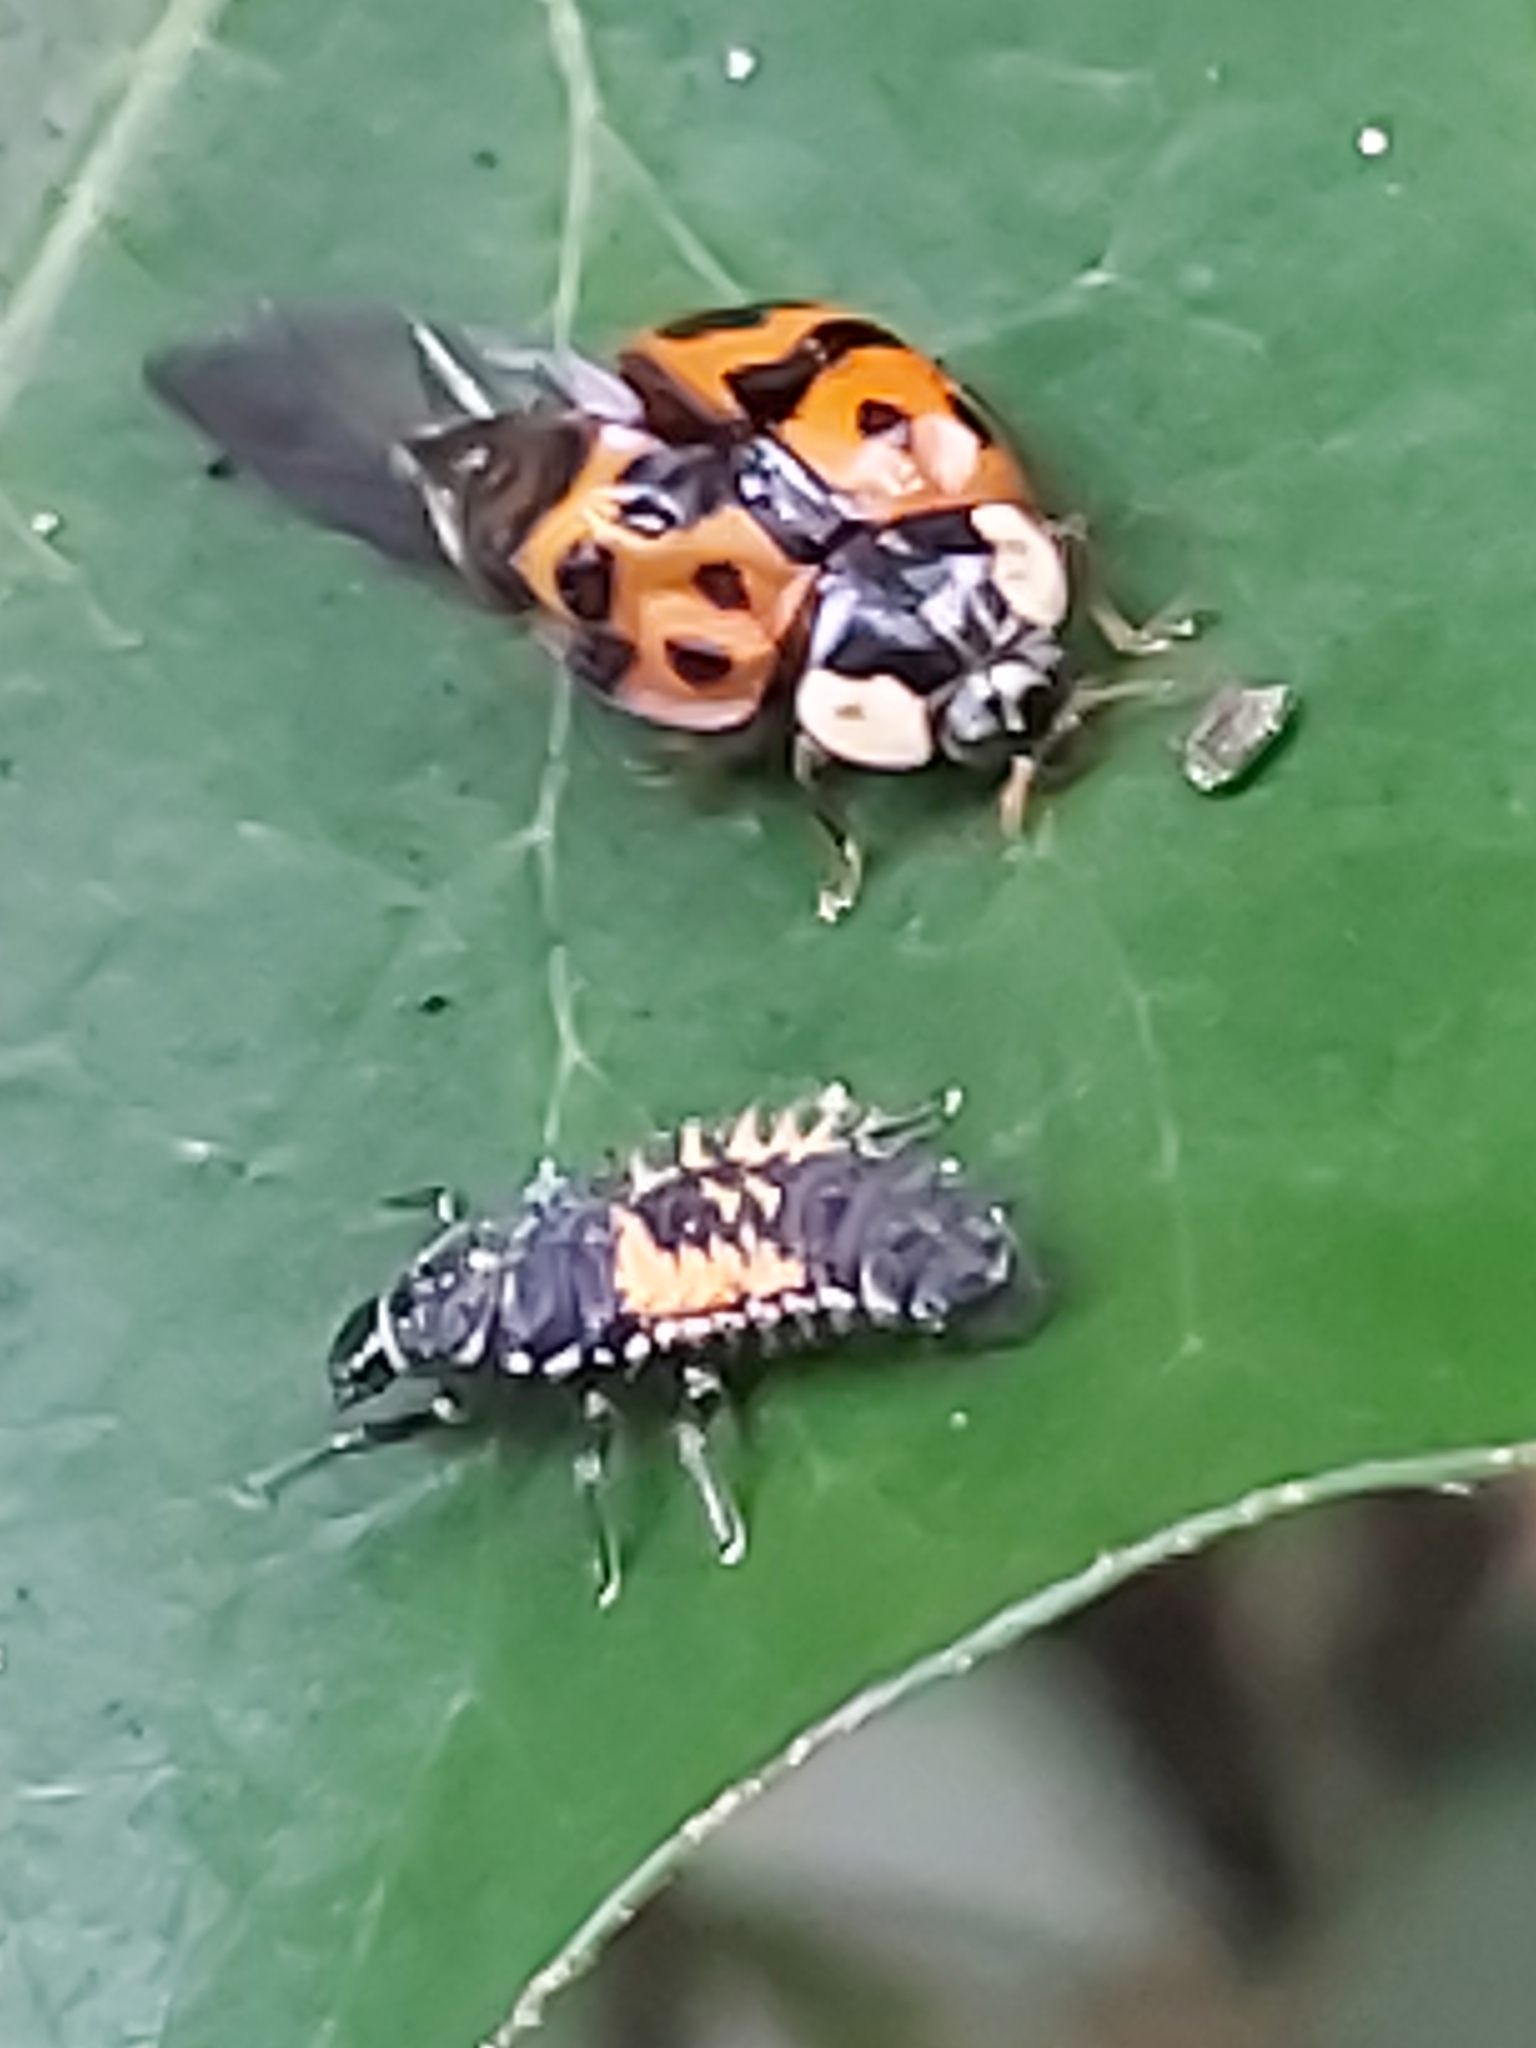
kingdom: Animalia
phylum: Arthropoda
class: Insecta
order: Coleoptera
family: Coccinellidae
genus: Harmonia
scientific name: Harmonia axyridis
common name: Harlequin ladybird
